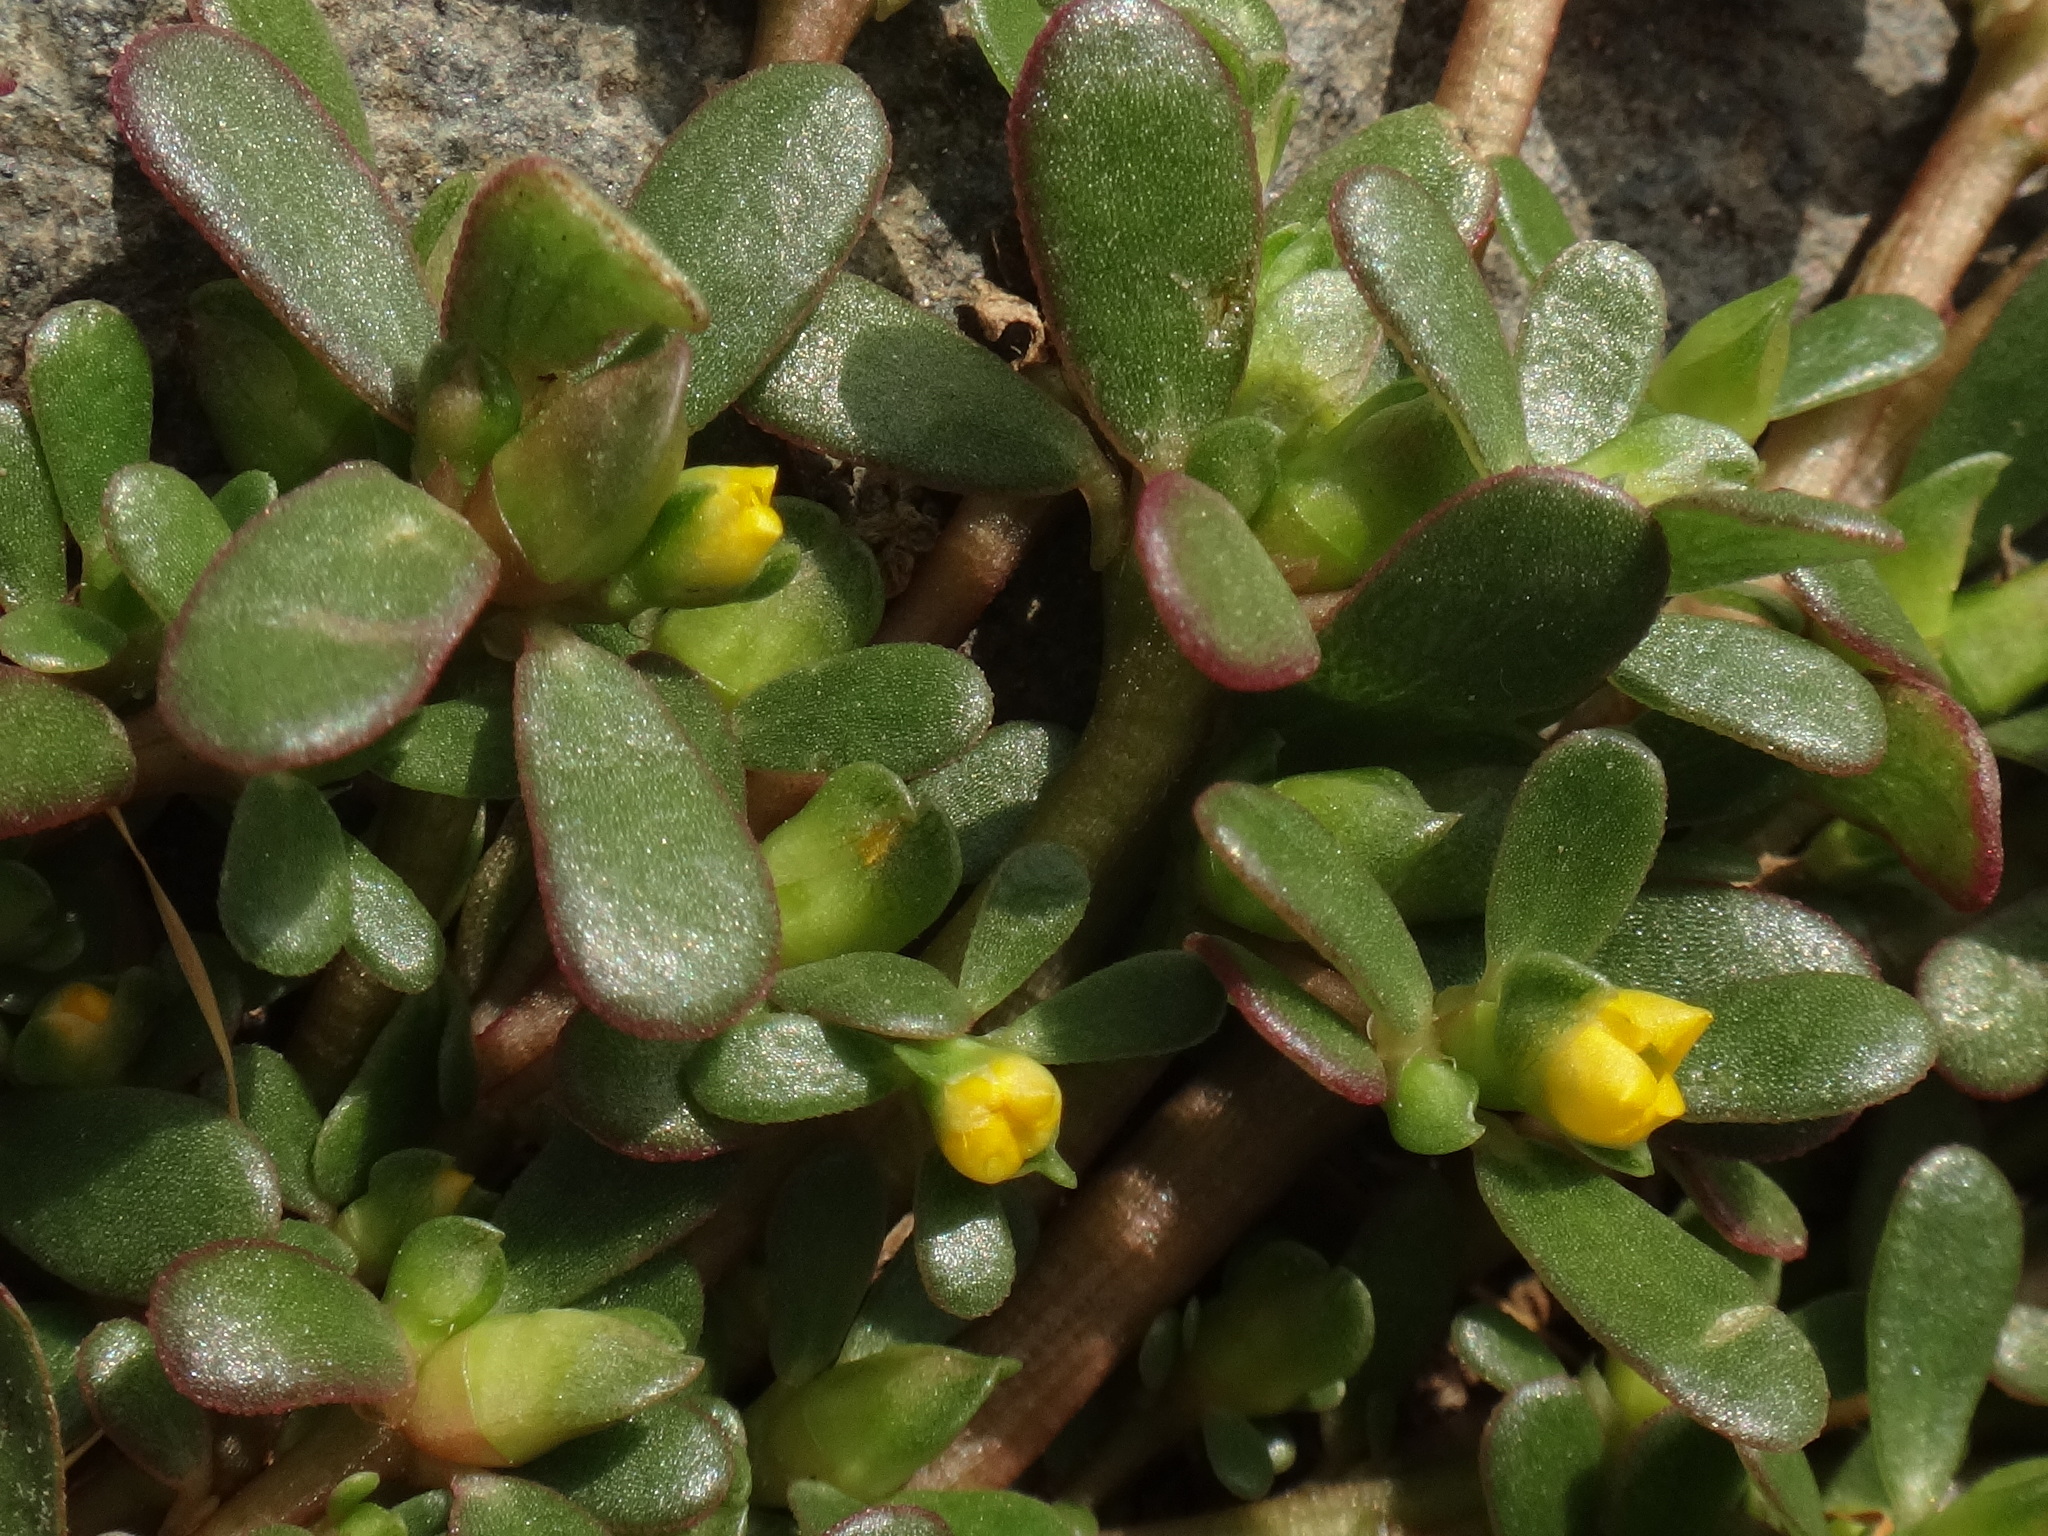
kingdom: Plantae
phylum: Tracheophyta
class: Magnoliopsida
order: Caryophyllales
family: Portulacaceae
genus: Portulaca
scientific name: Portulaca oleracea
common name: Common purslane
